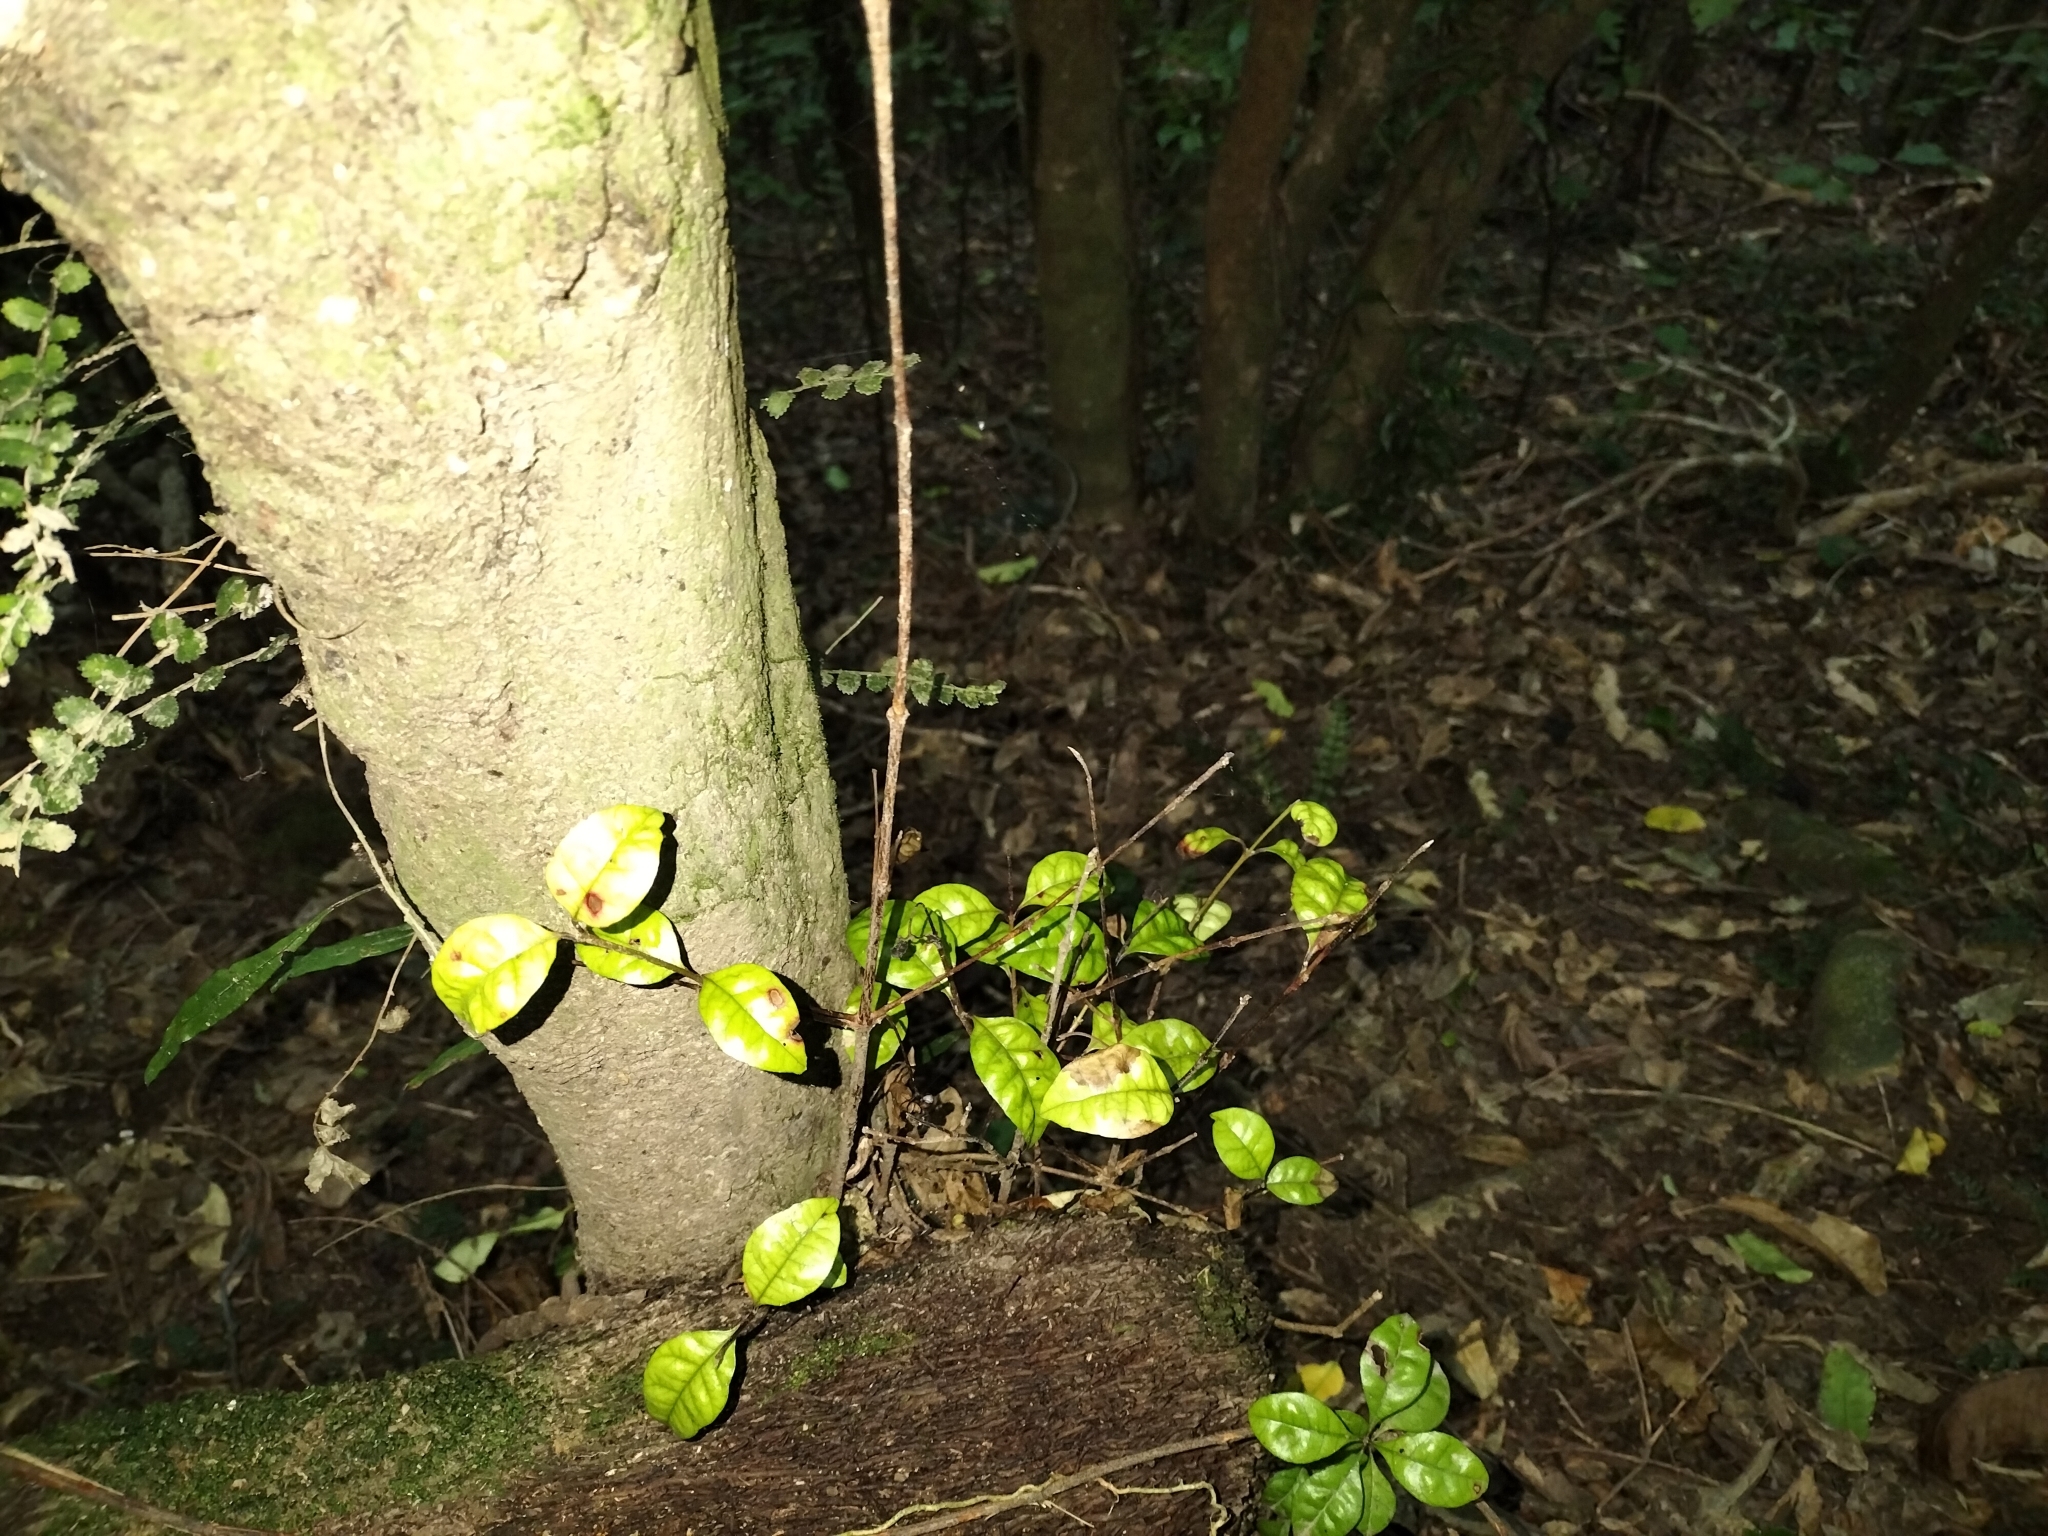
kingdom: Plantae
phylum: Tracheophyta
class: Magnoliopsida
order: Myrtales
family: Myrtaceae
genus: Lophomyrtus
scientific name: Lophomyrtus bullata
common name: Rama rama
